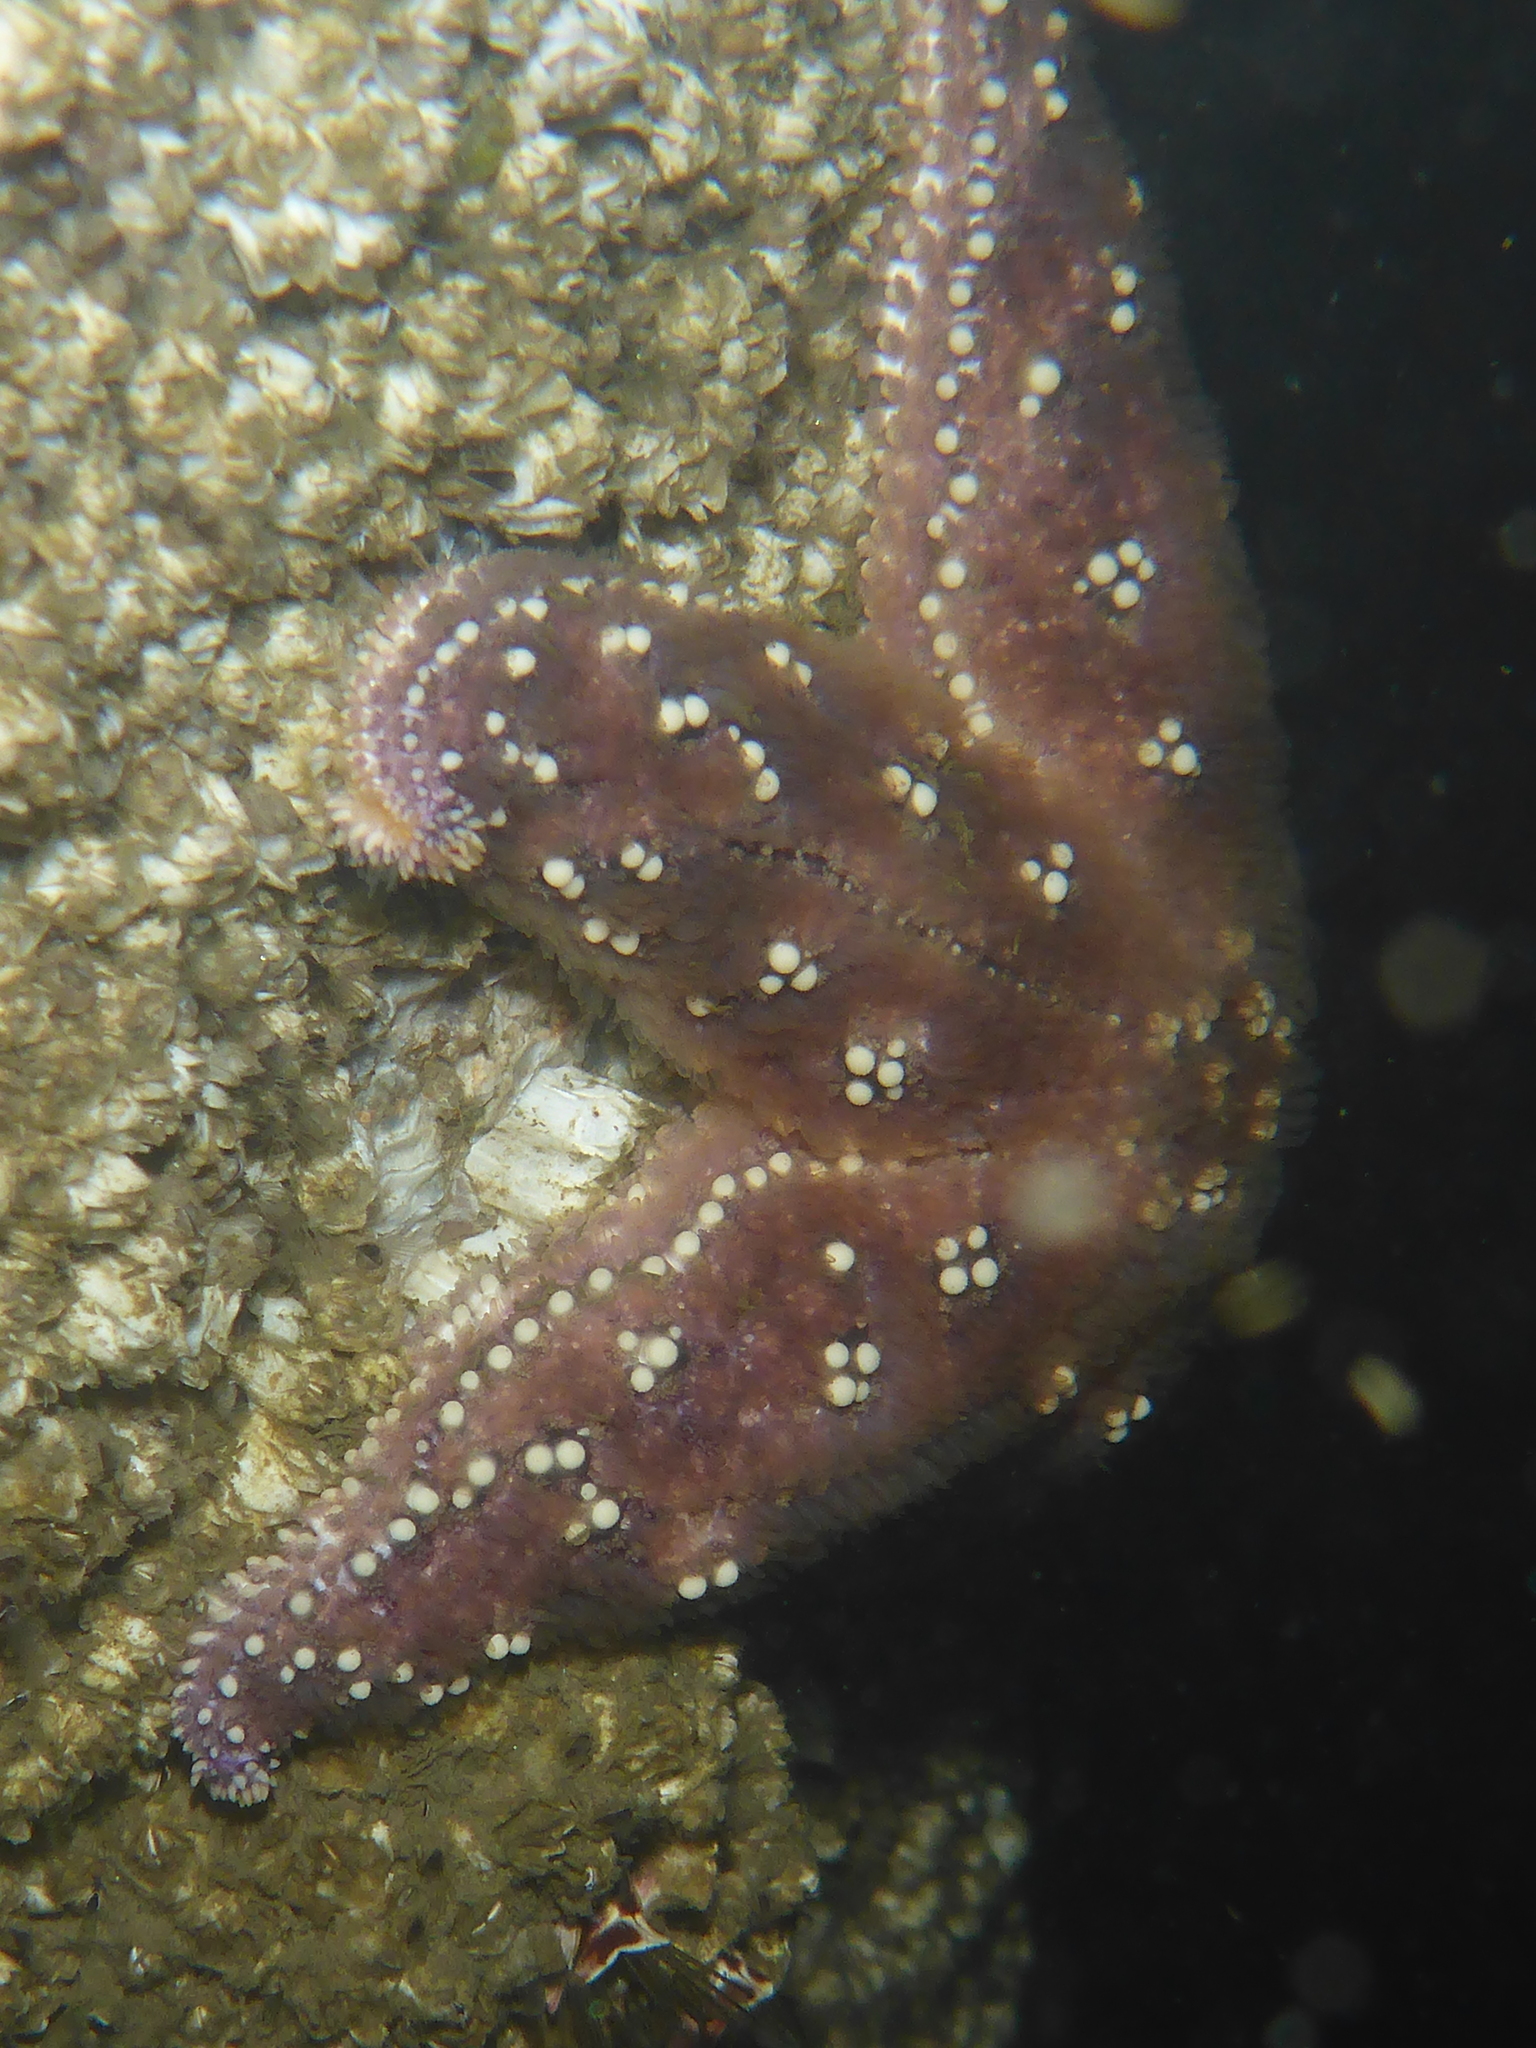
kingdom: Animalia
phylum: Echinodermata
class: Asteroidea
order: Forcipulatida
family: Asteriidae
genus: Pisaster
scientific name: Pisaster ochraceus
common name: Ochre stars
